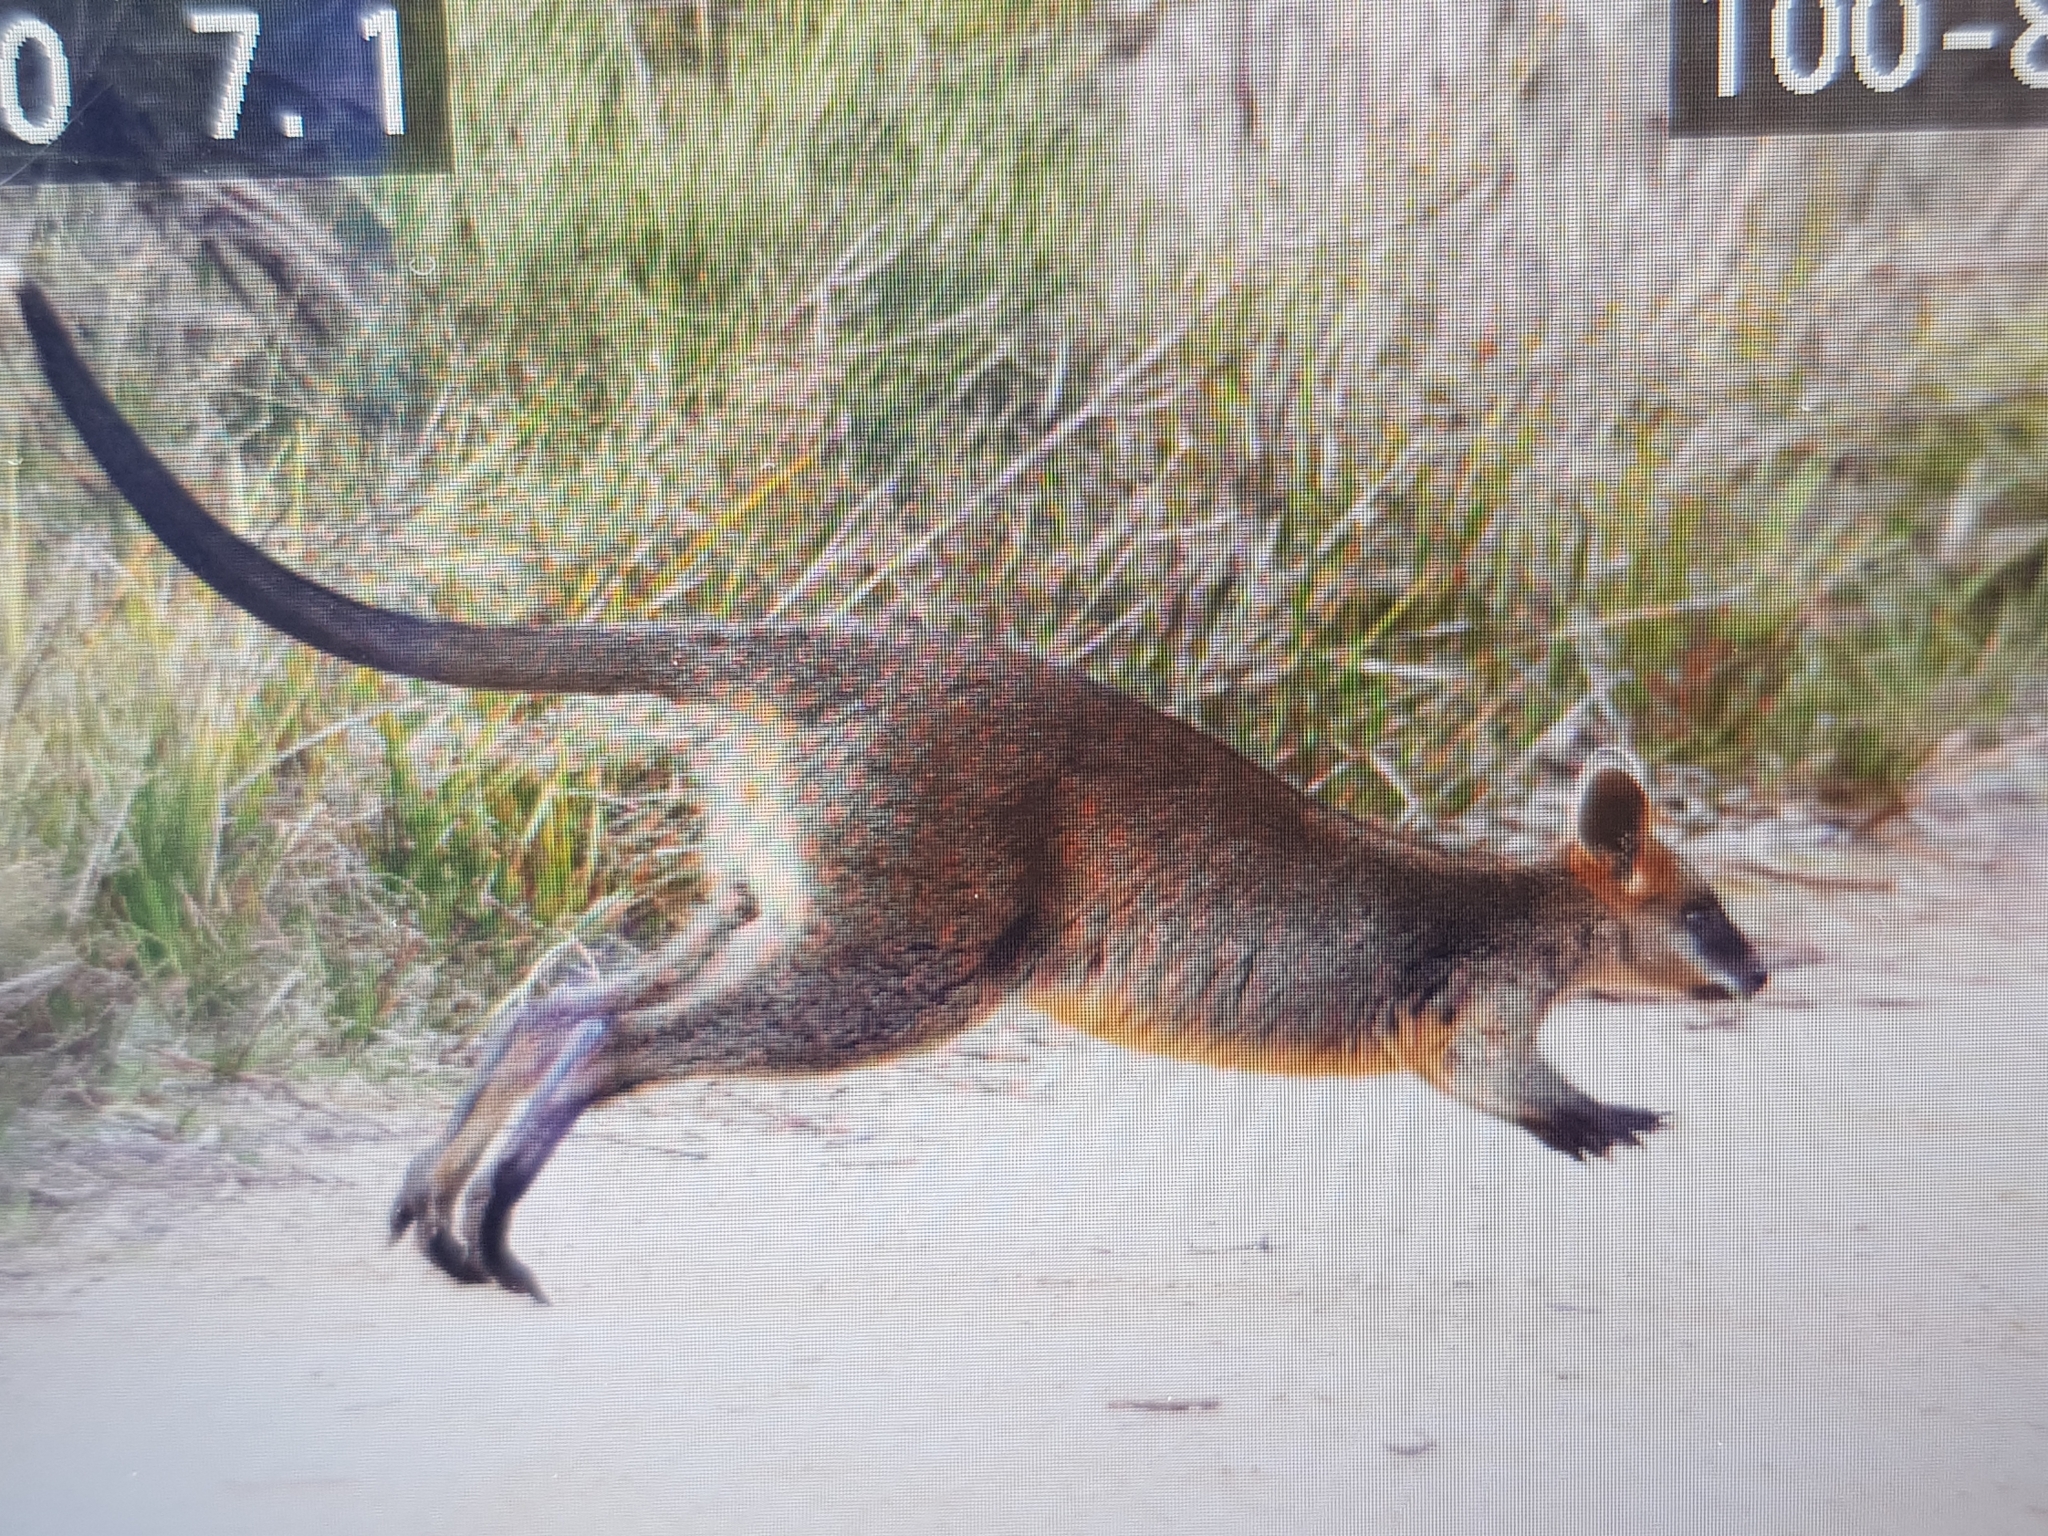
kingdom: Animalia
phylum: Chordata
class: Mammalia
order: Diprotodontia
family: Macropodidae
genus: Wallabia
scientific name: Wallabia bicolor
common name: Swamp wallaby
